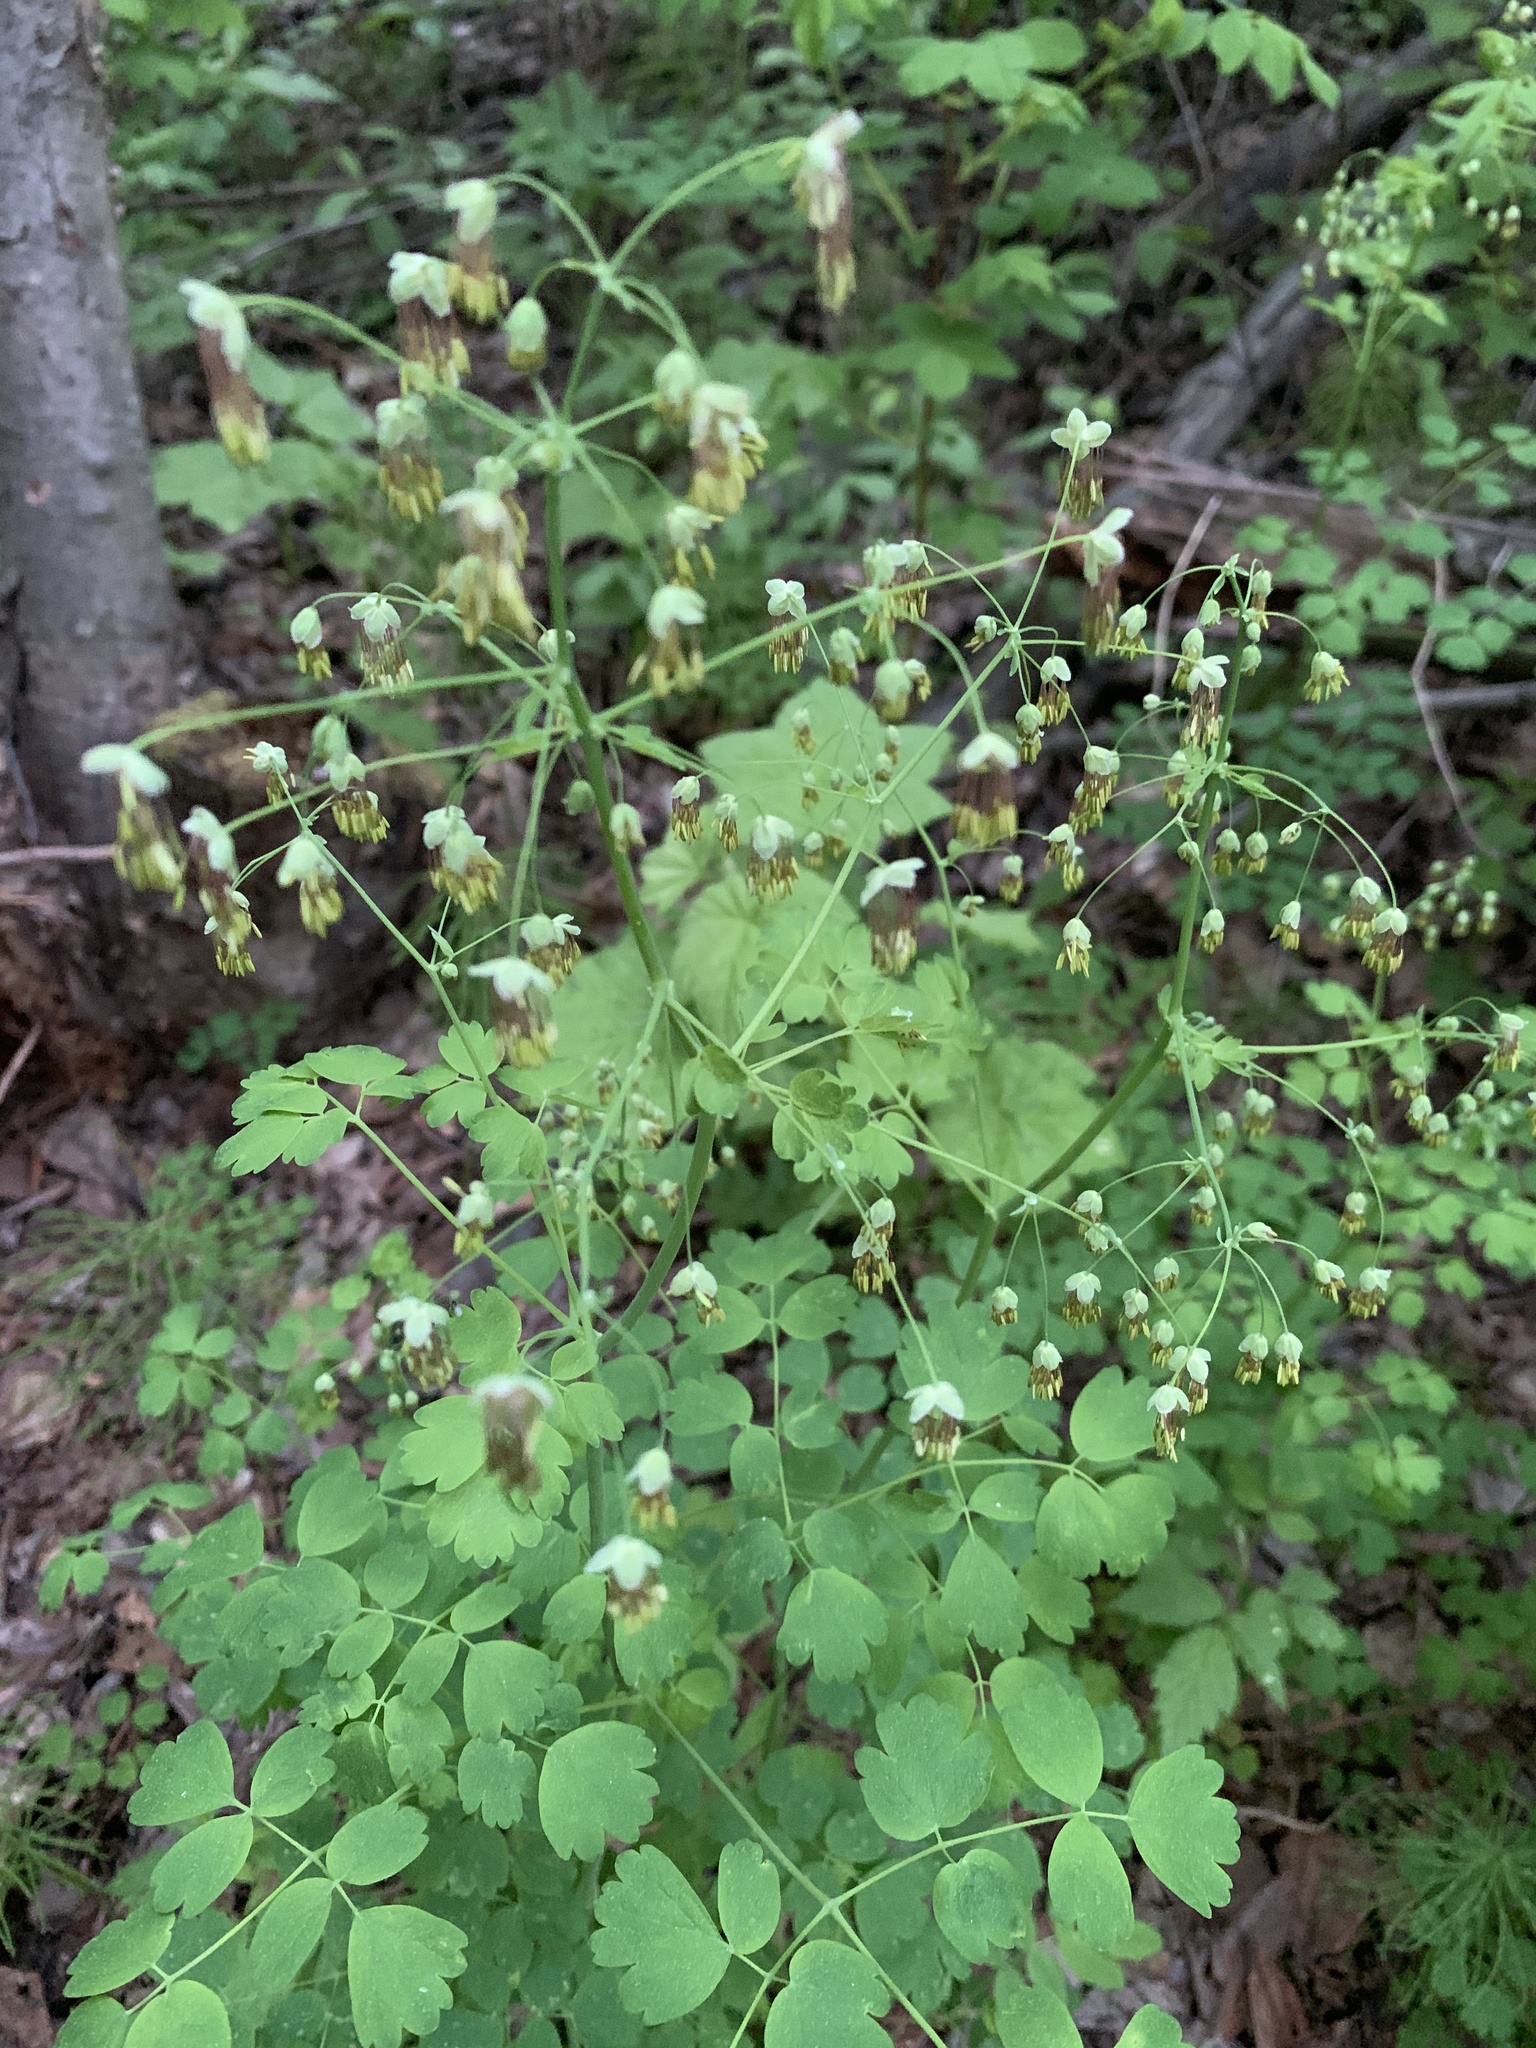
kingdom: Plantae
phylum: Tracheophyta
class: Magnoliopsida
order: Ranunculales
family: Ranunculaceae
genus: Thalictrum
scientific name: Thalictrum occidentale
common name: Western meadow-rue
